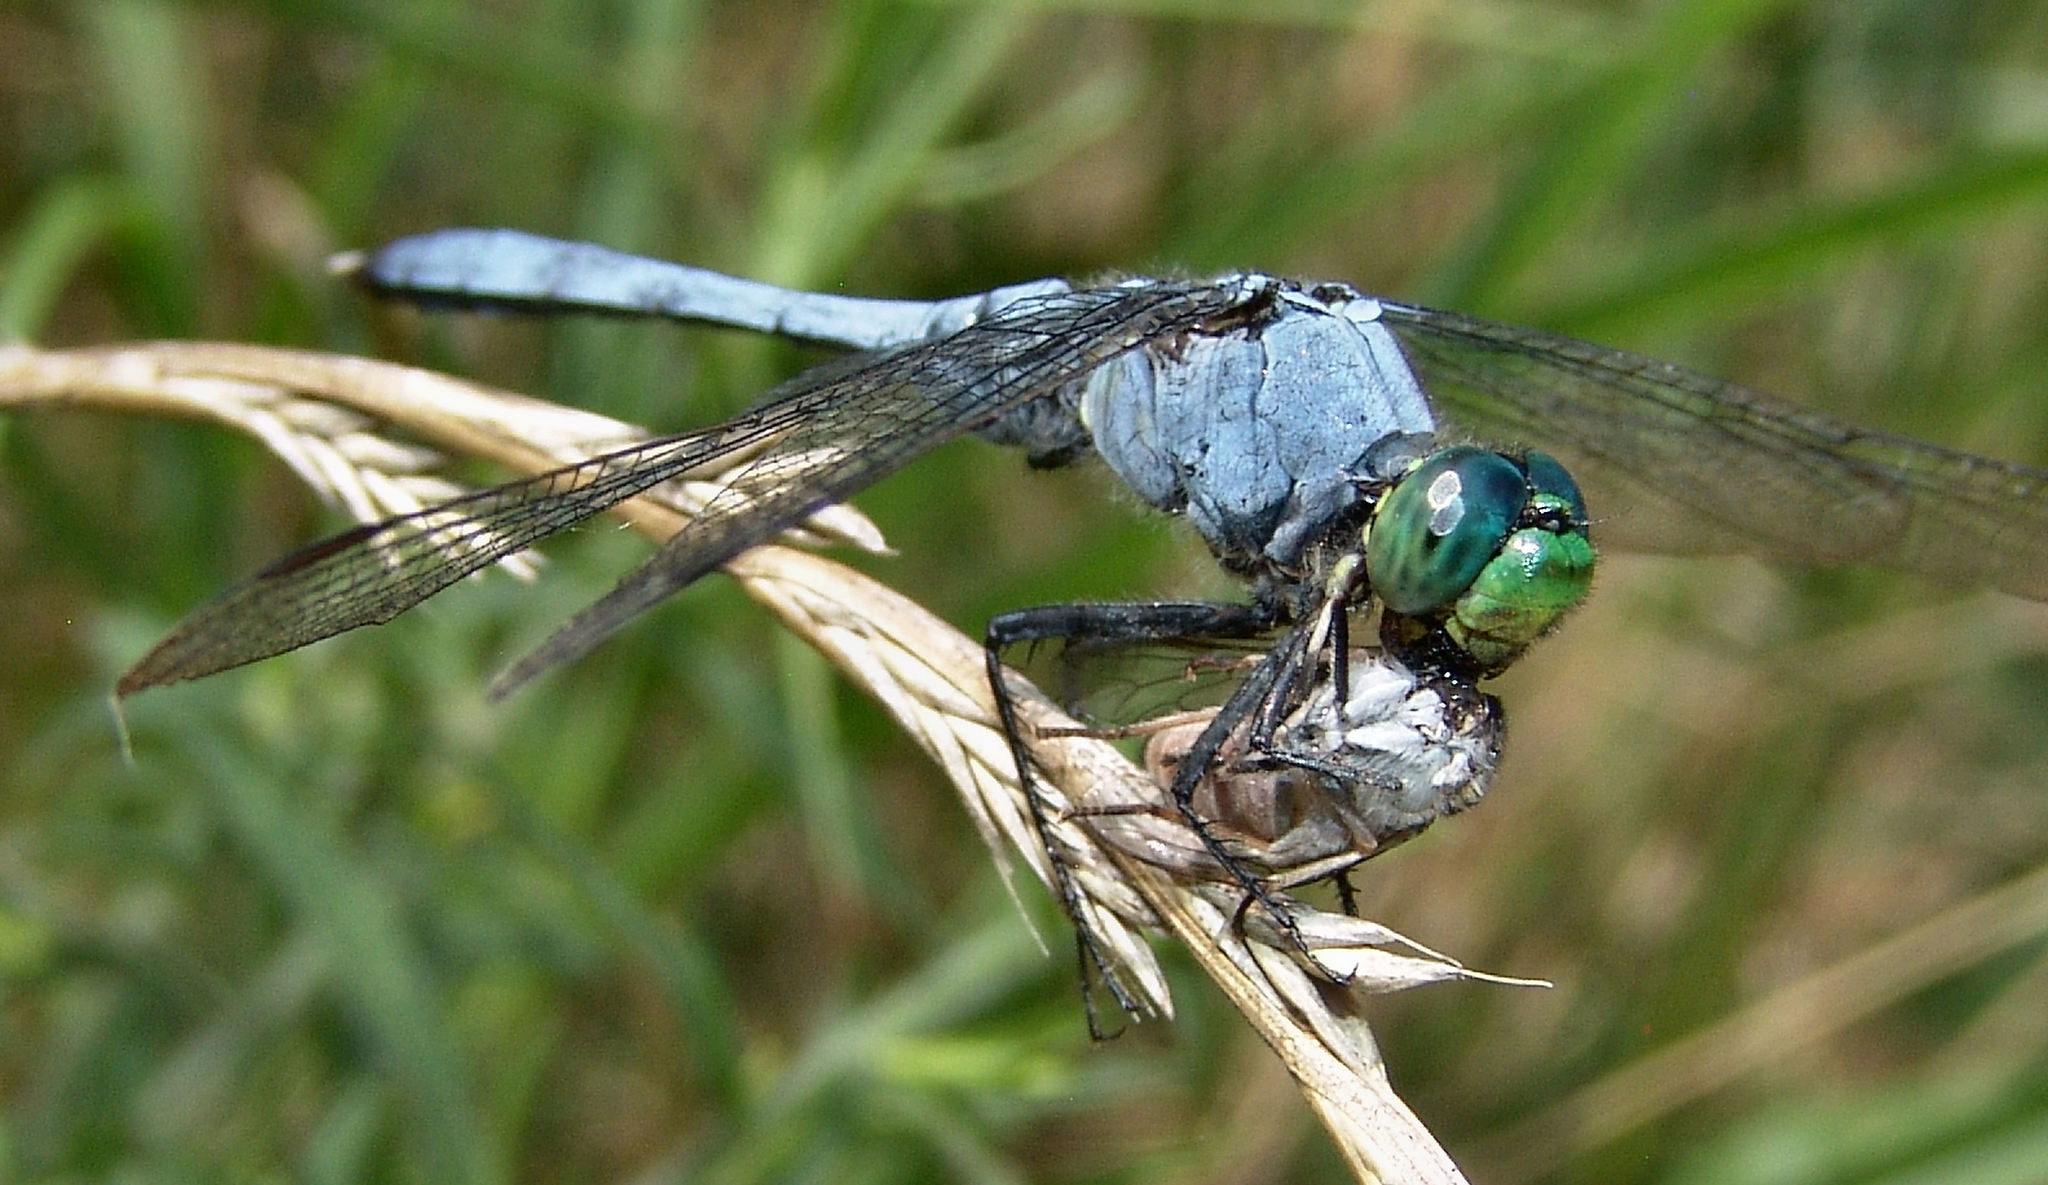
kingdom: Animalia
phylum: Arthropoda
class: Insecta
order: Odonata
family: Libellulidae
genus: Erythemis
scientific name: Erythemis simplicicollis
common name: Eastern pondhawk
